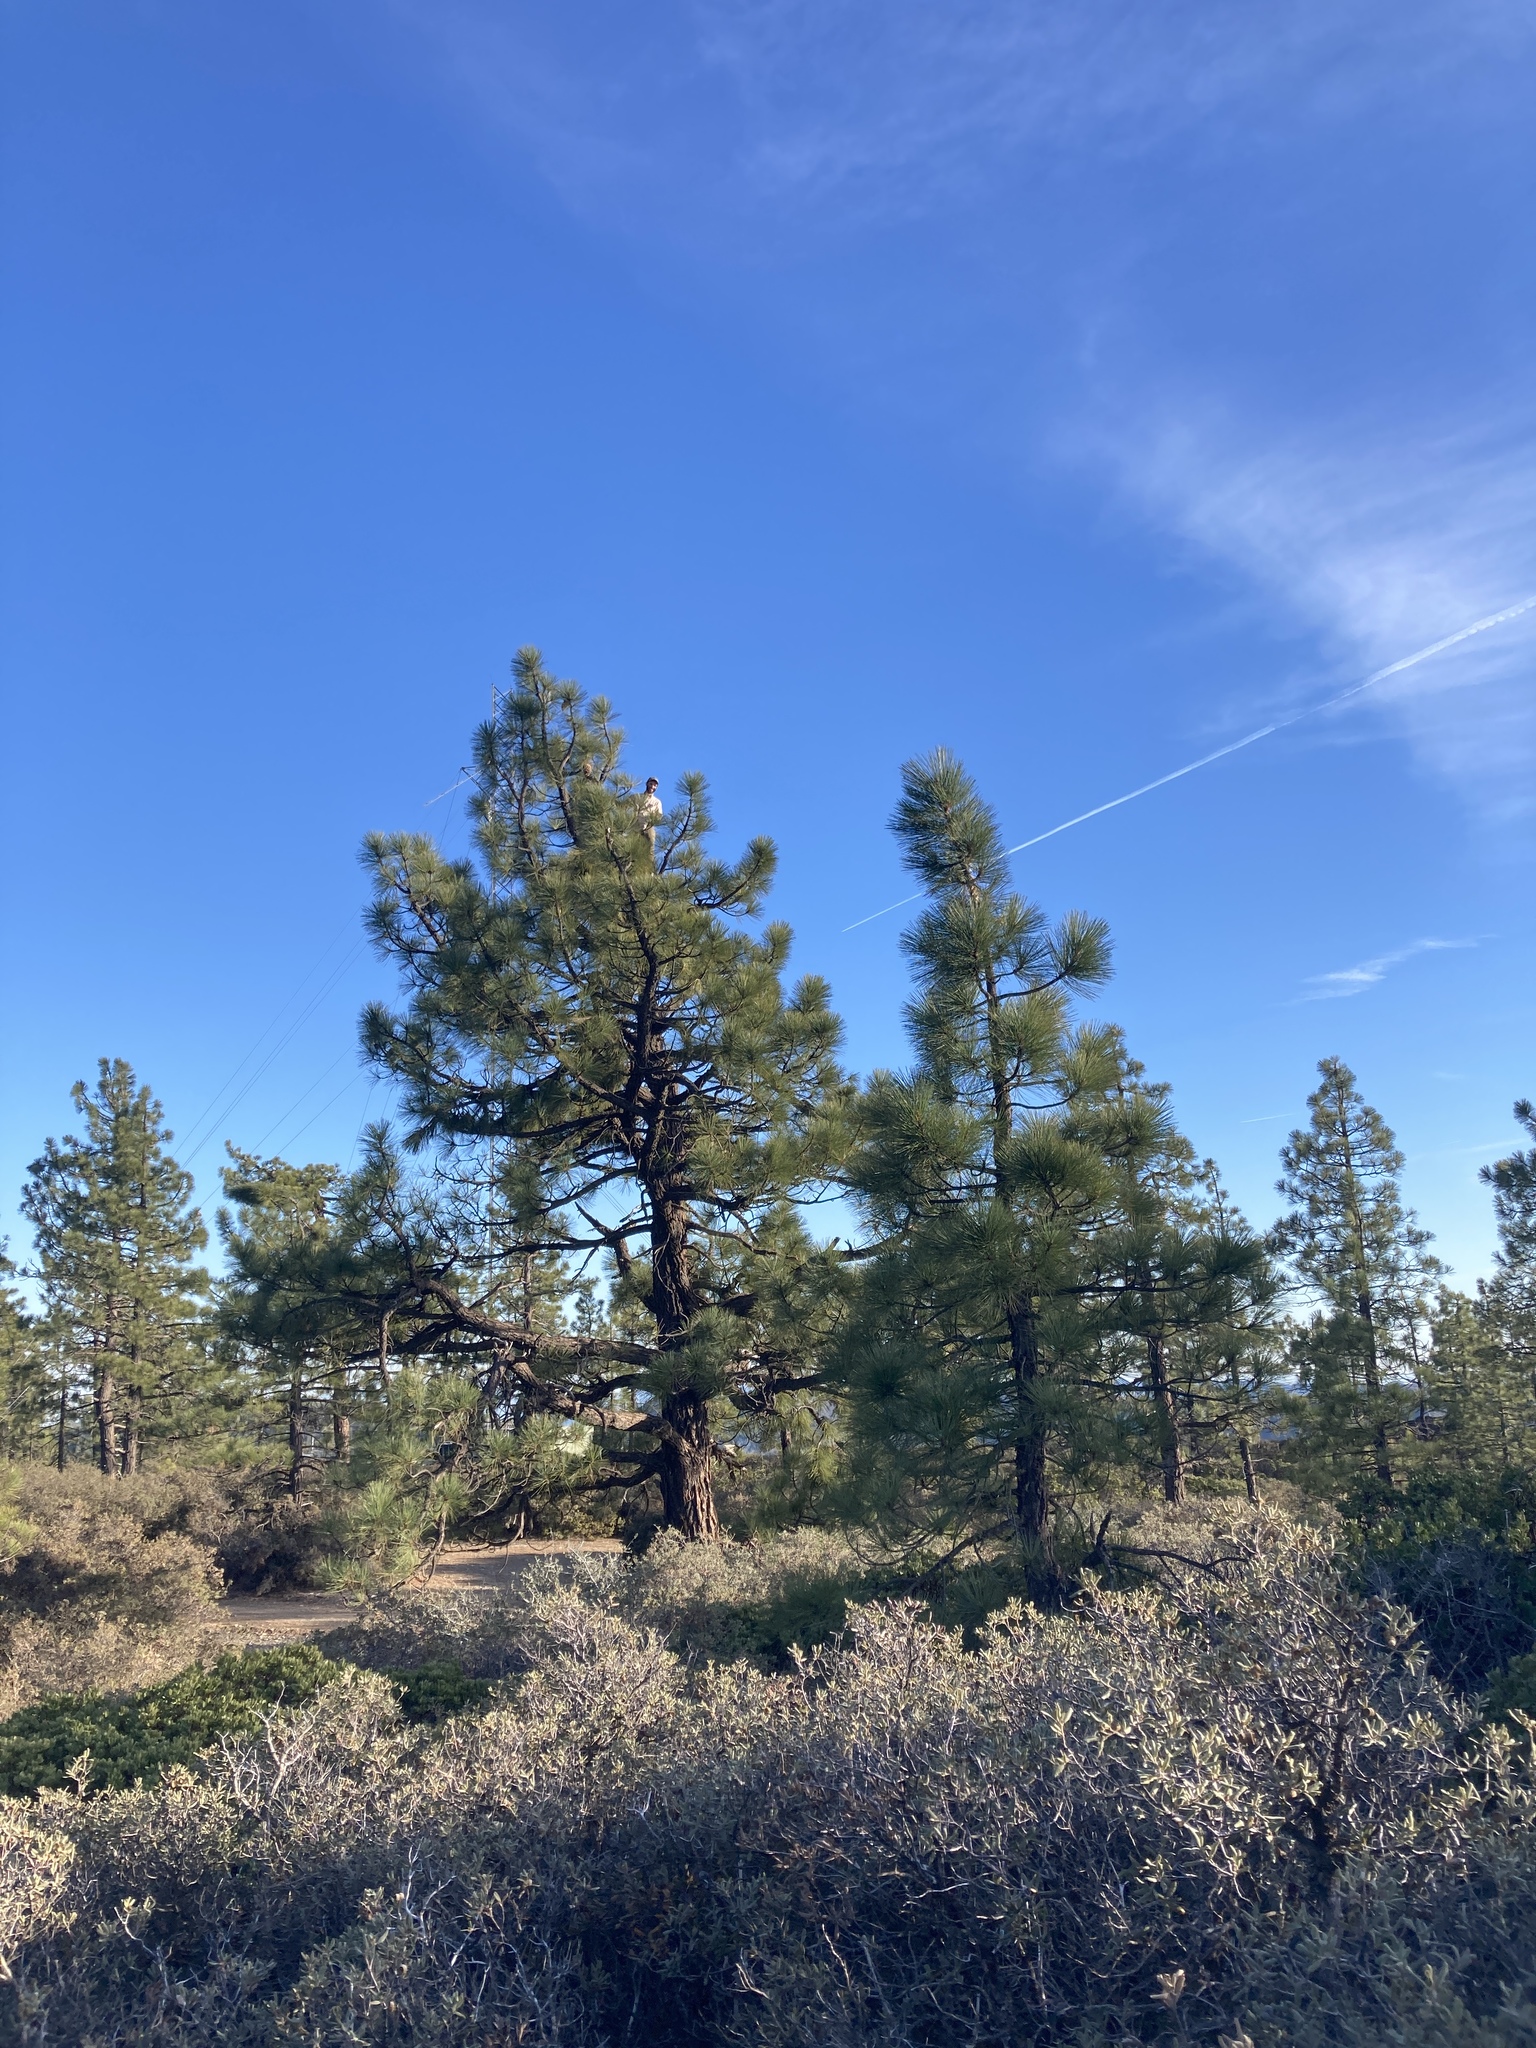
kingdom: Plantae
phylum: Tracheophyta
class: Pinopsida
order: Pinales
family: Pinaceae
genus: Pinus
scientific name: Pinus coulteri
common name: Coulter pine
